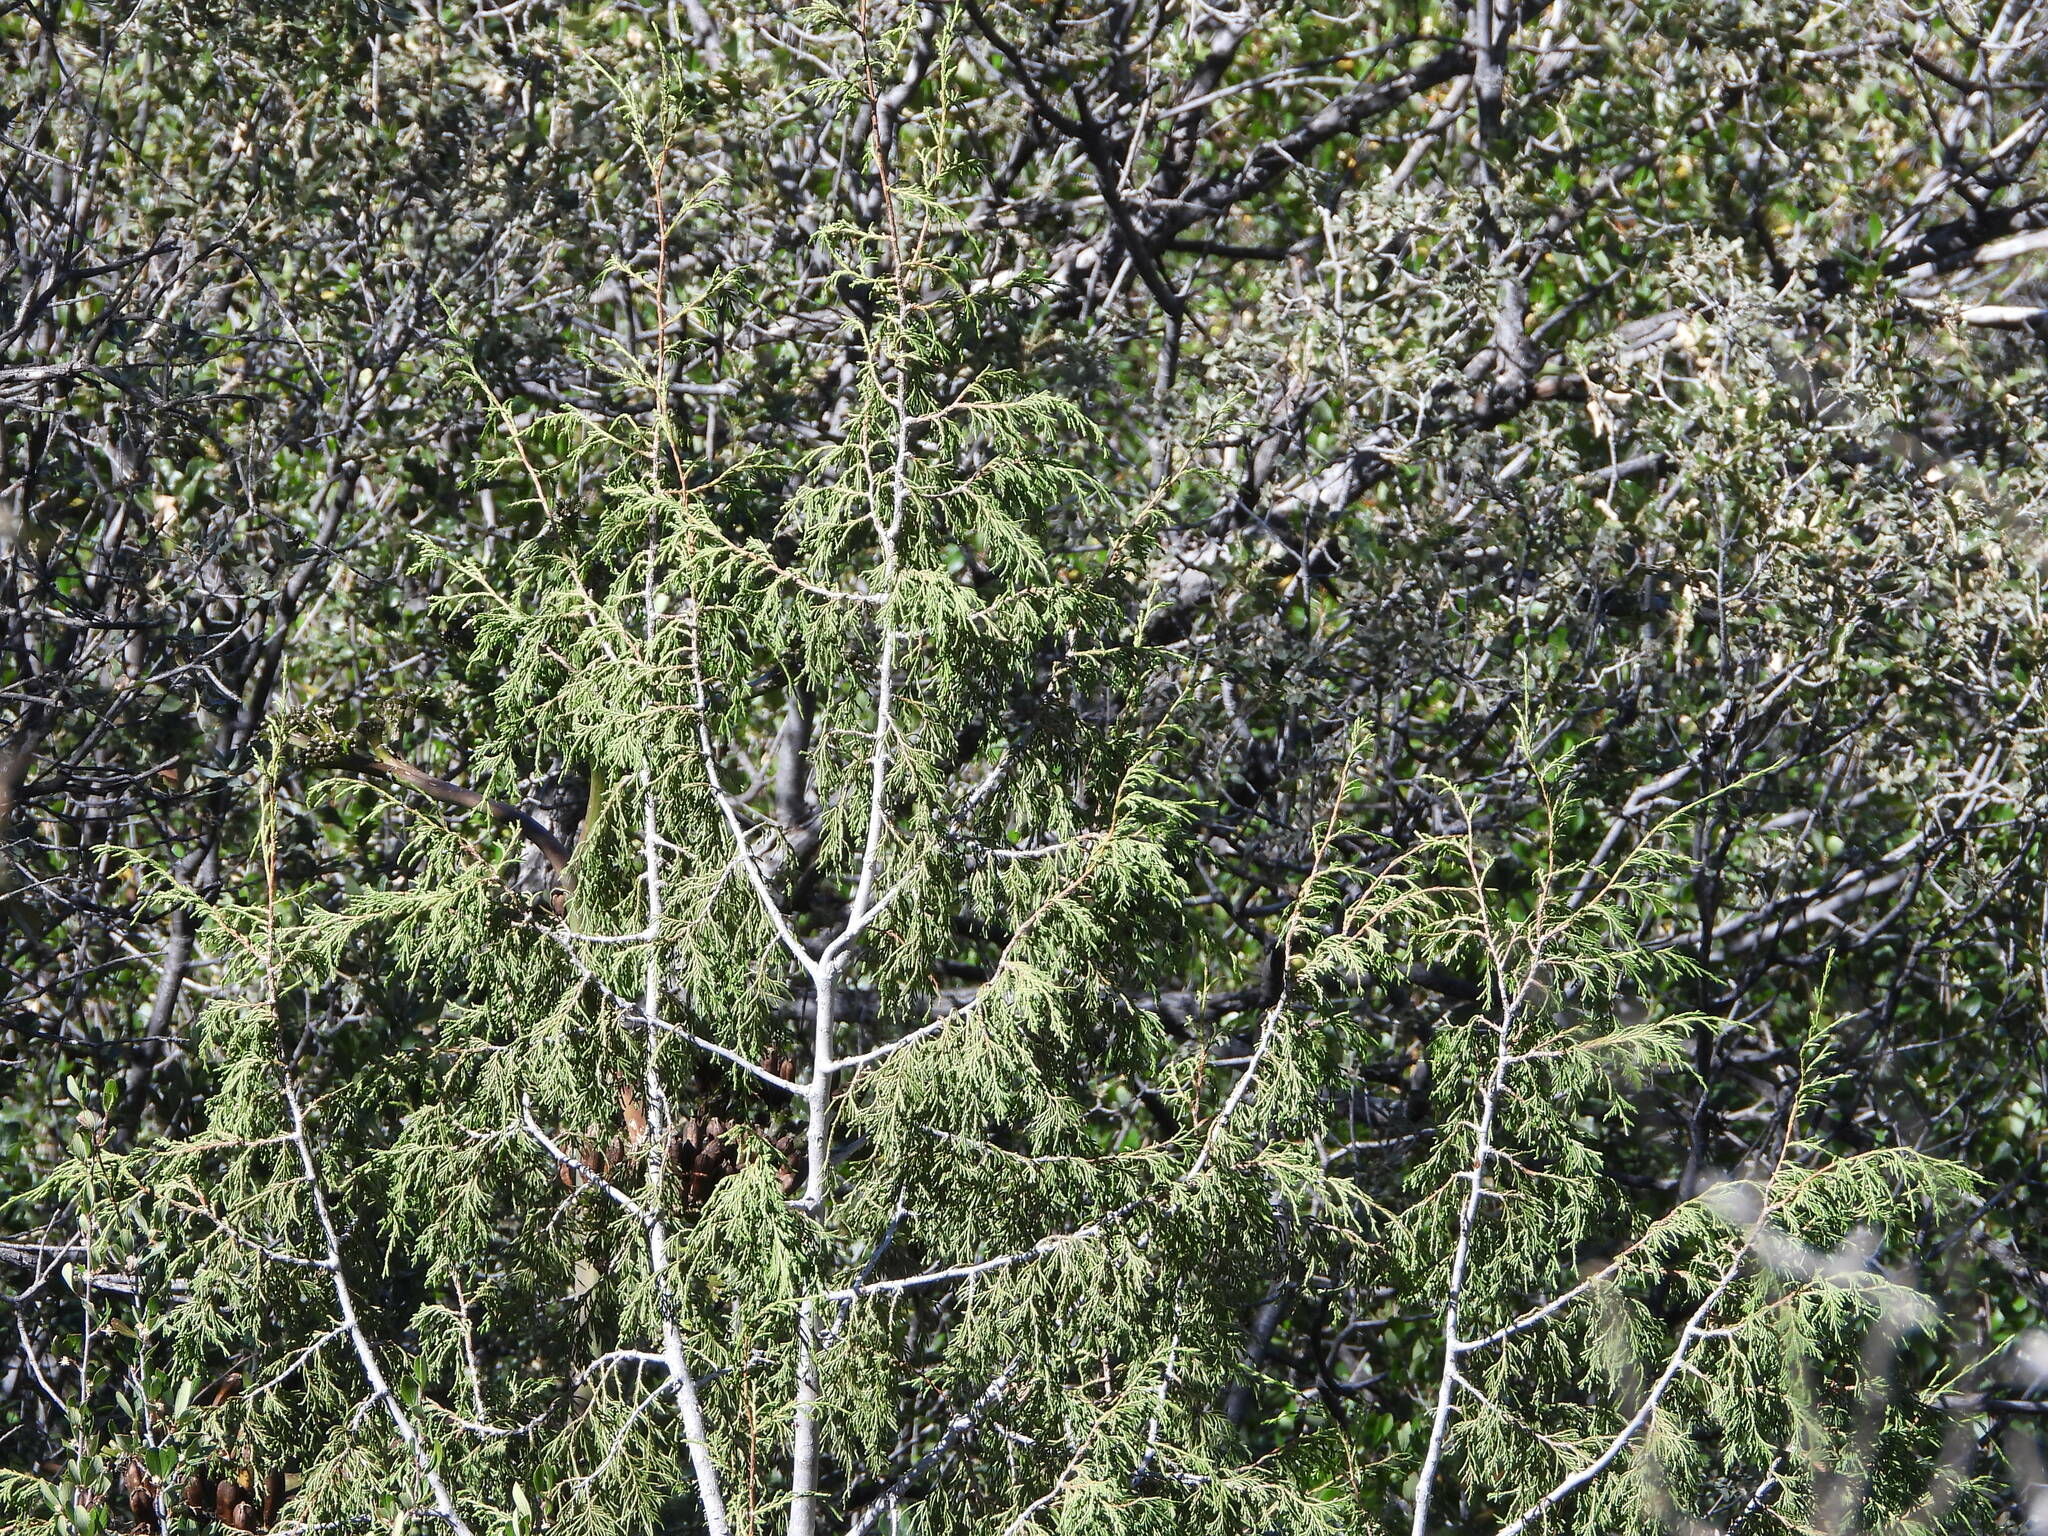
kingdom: Plantae
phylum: Tracheophyta
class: Pinopsida
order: Pinales
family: Cupressaceae
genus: Juniperus
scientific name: Juniperus flaccida
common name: Drooping juniper
